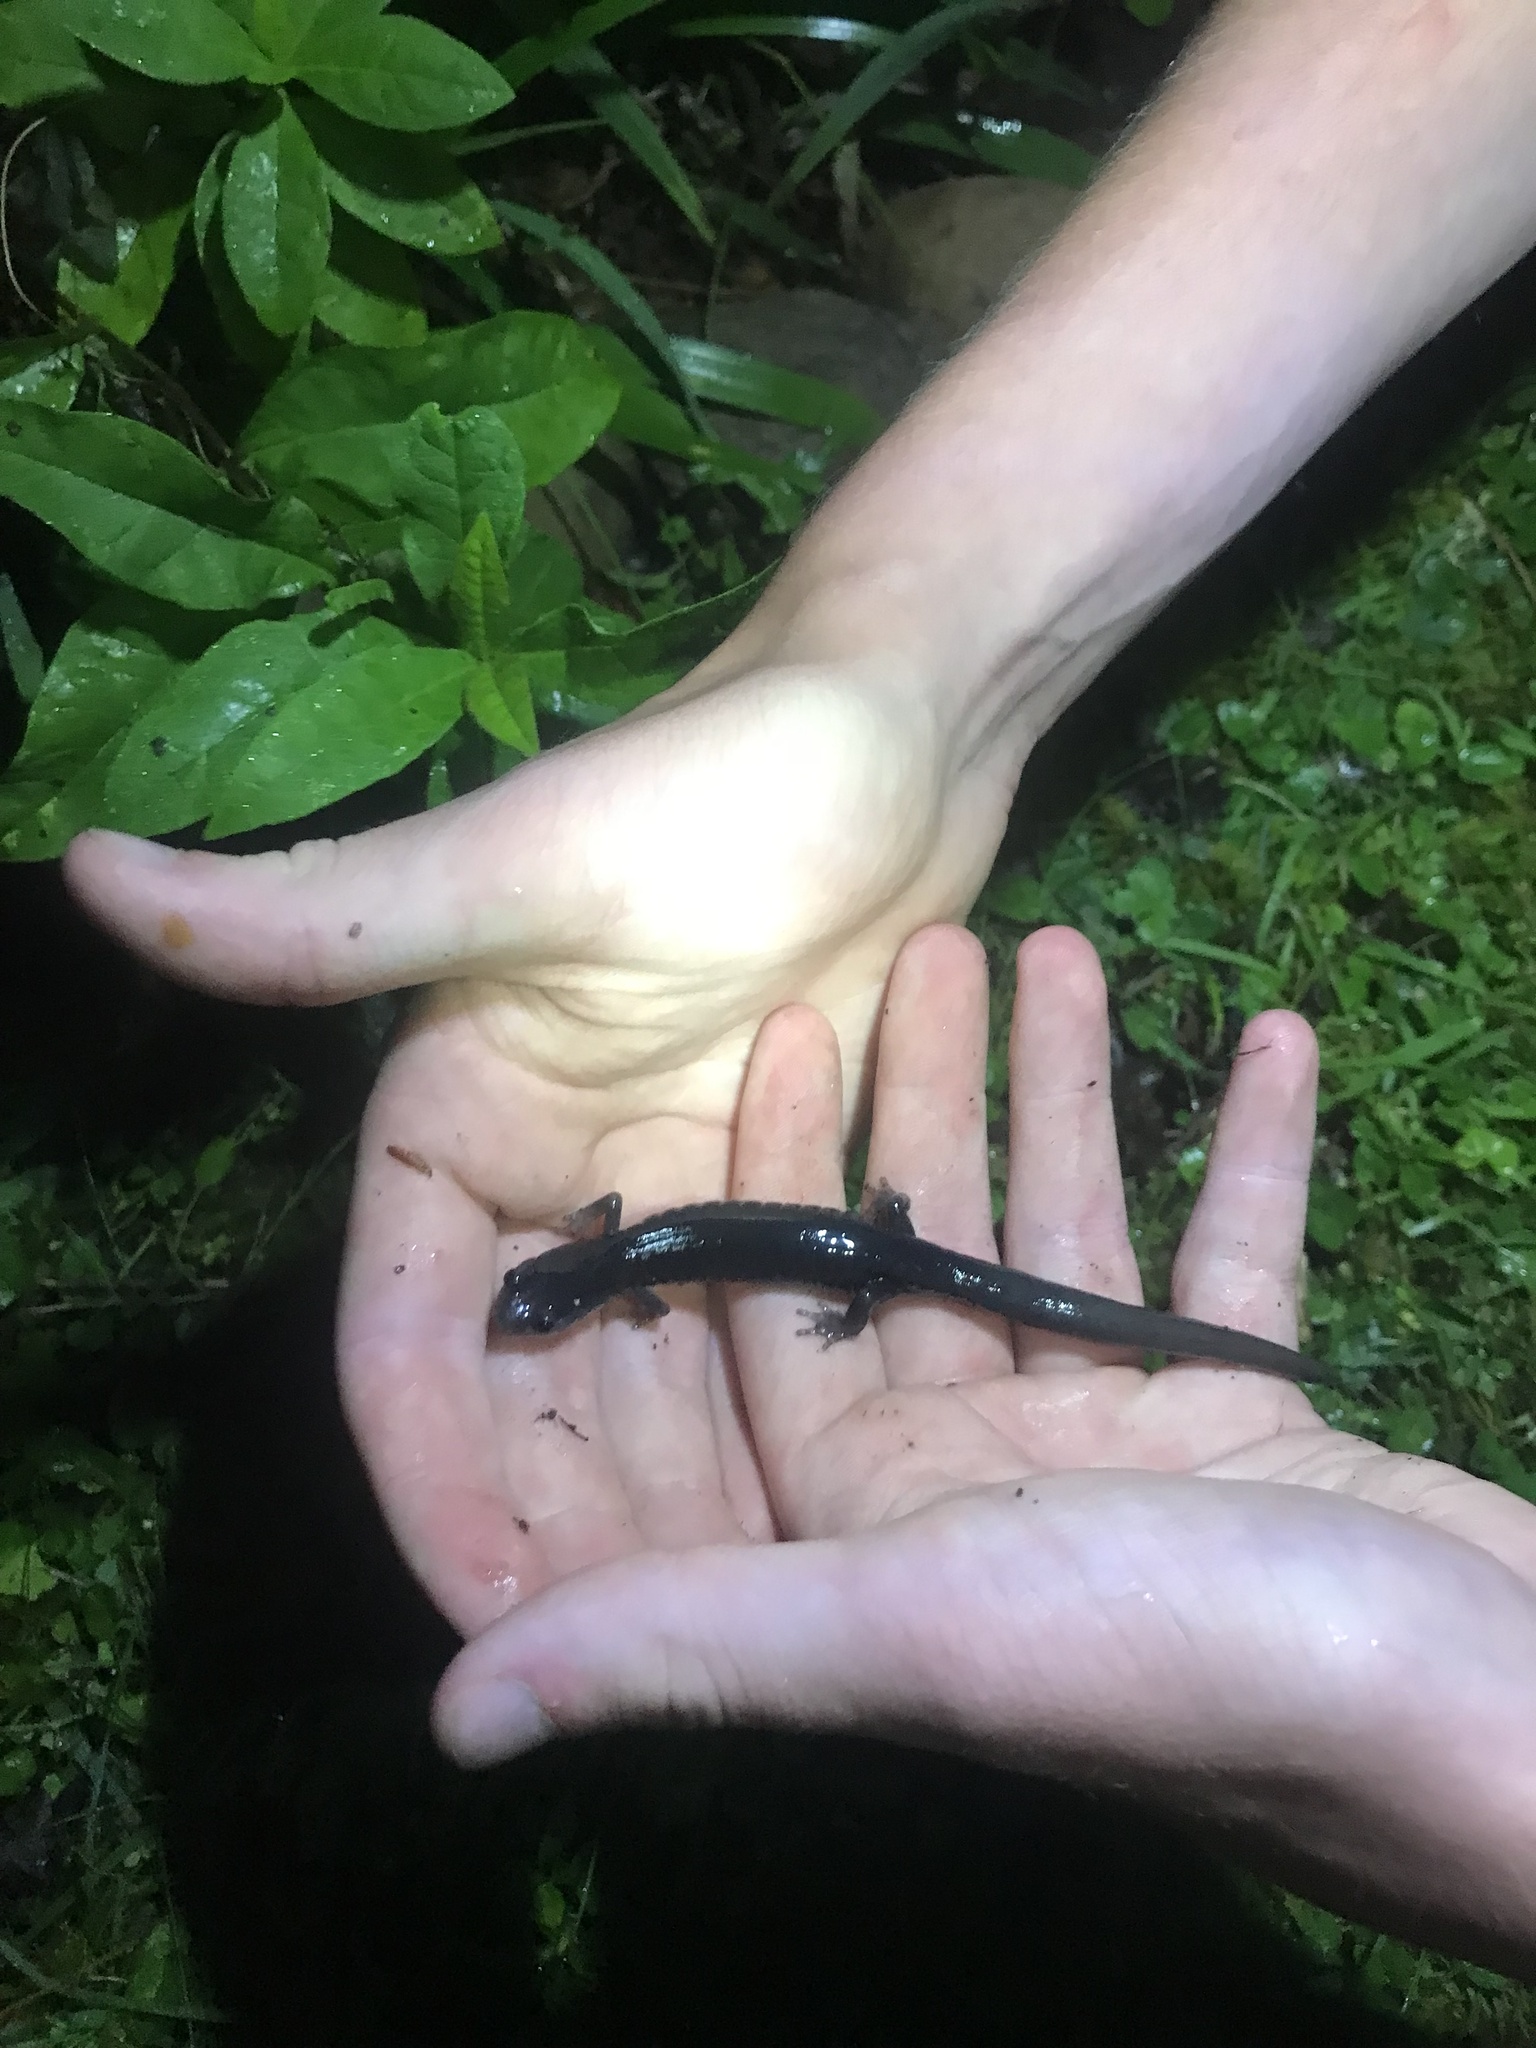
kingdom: Animalia
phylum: Chordata
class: Amphibia
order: Caudata
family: Plethodontidae
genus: Plethodon
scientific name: Plethodon metcalfi
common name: Southern gray-cheeked salamander
